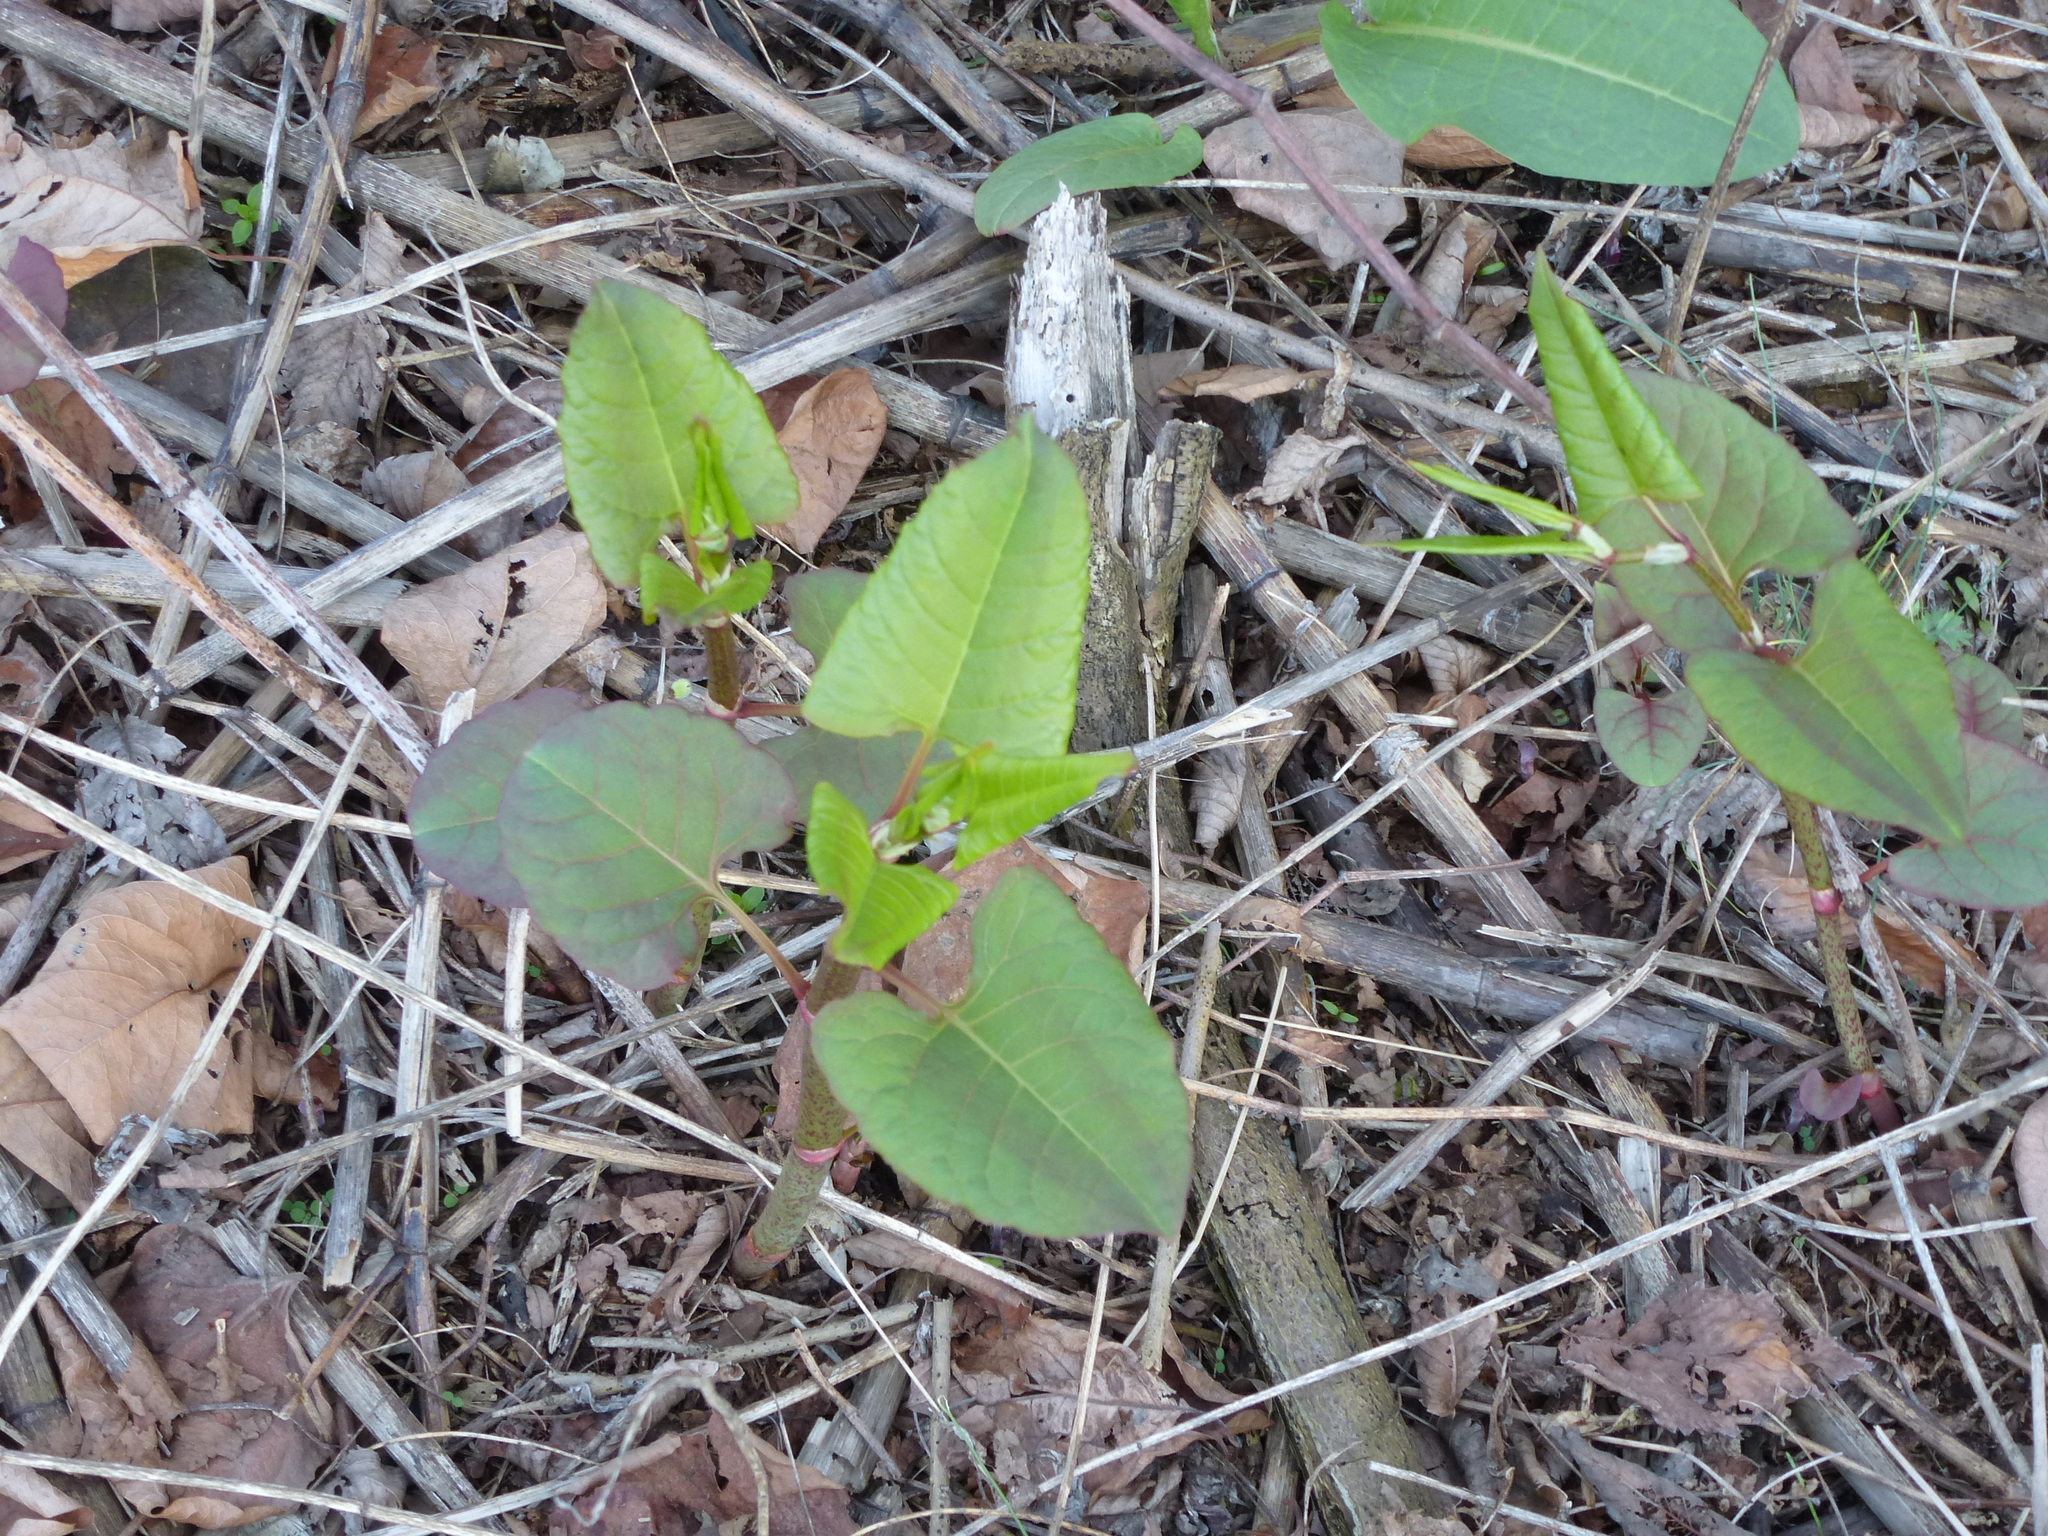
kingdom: Plantae
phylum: Tracheophyta
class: Magnoliopsida
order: Caryophyllales
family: Polygonaceae
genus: Reynoutria
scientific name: Reynoutria japonica
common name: Japanese knotweed
